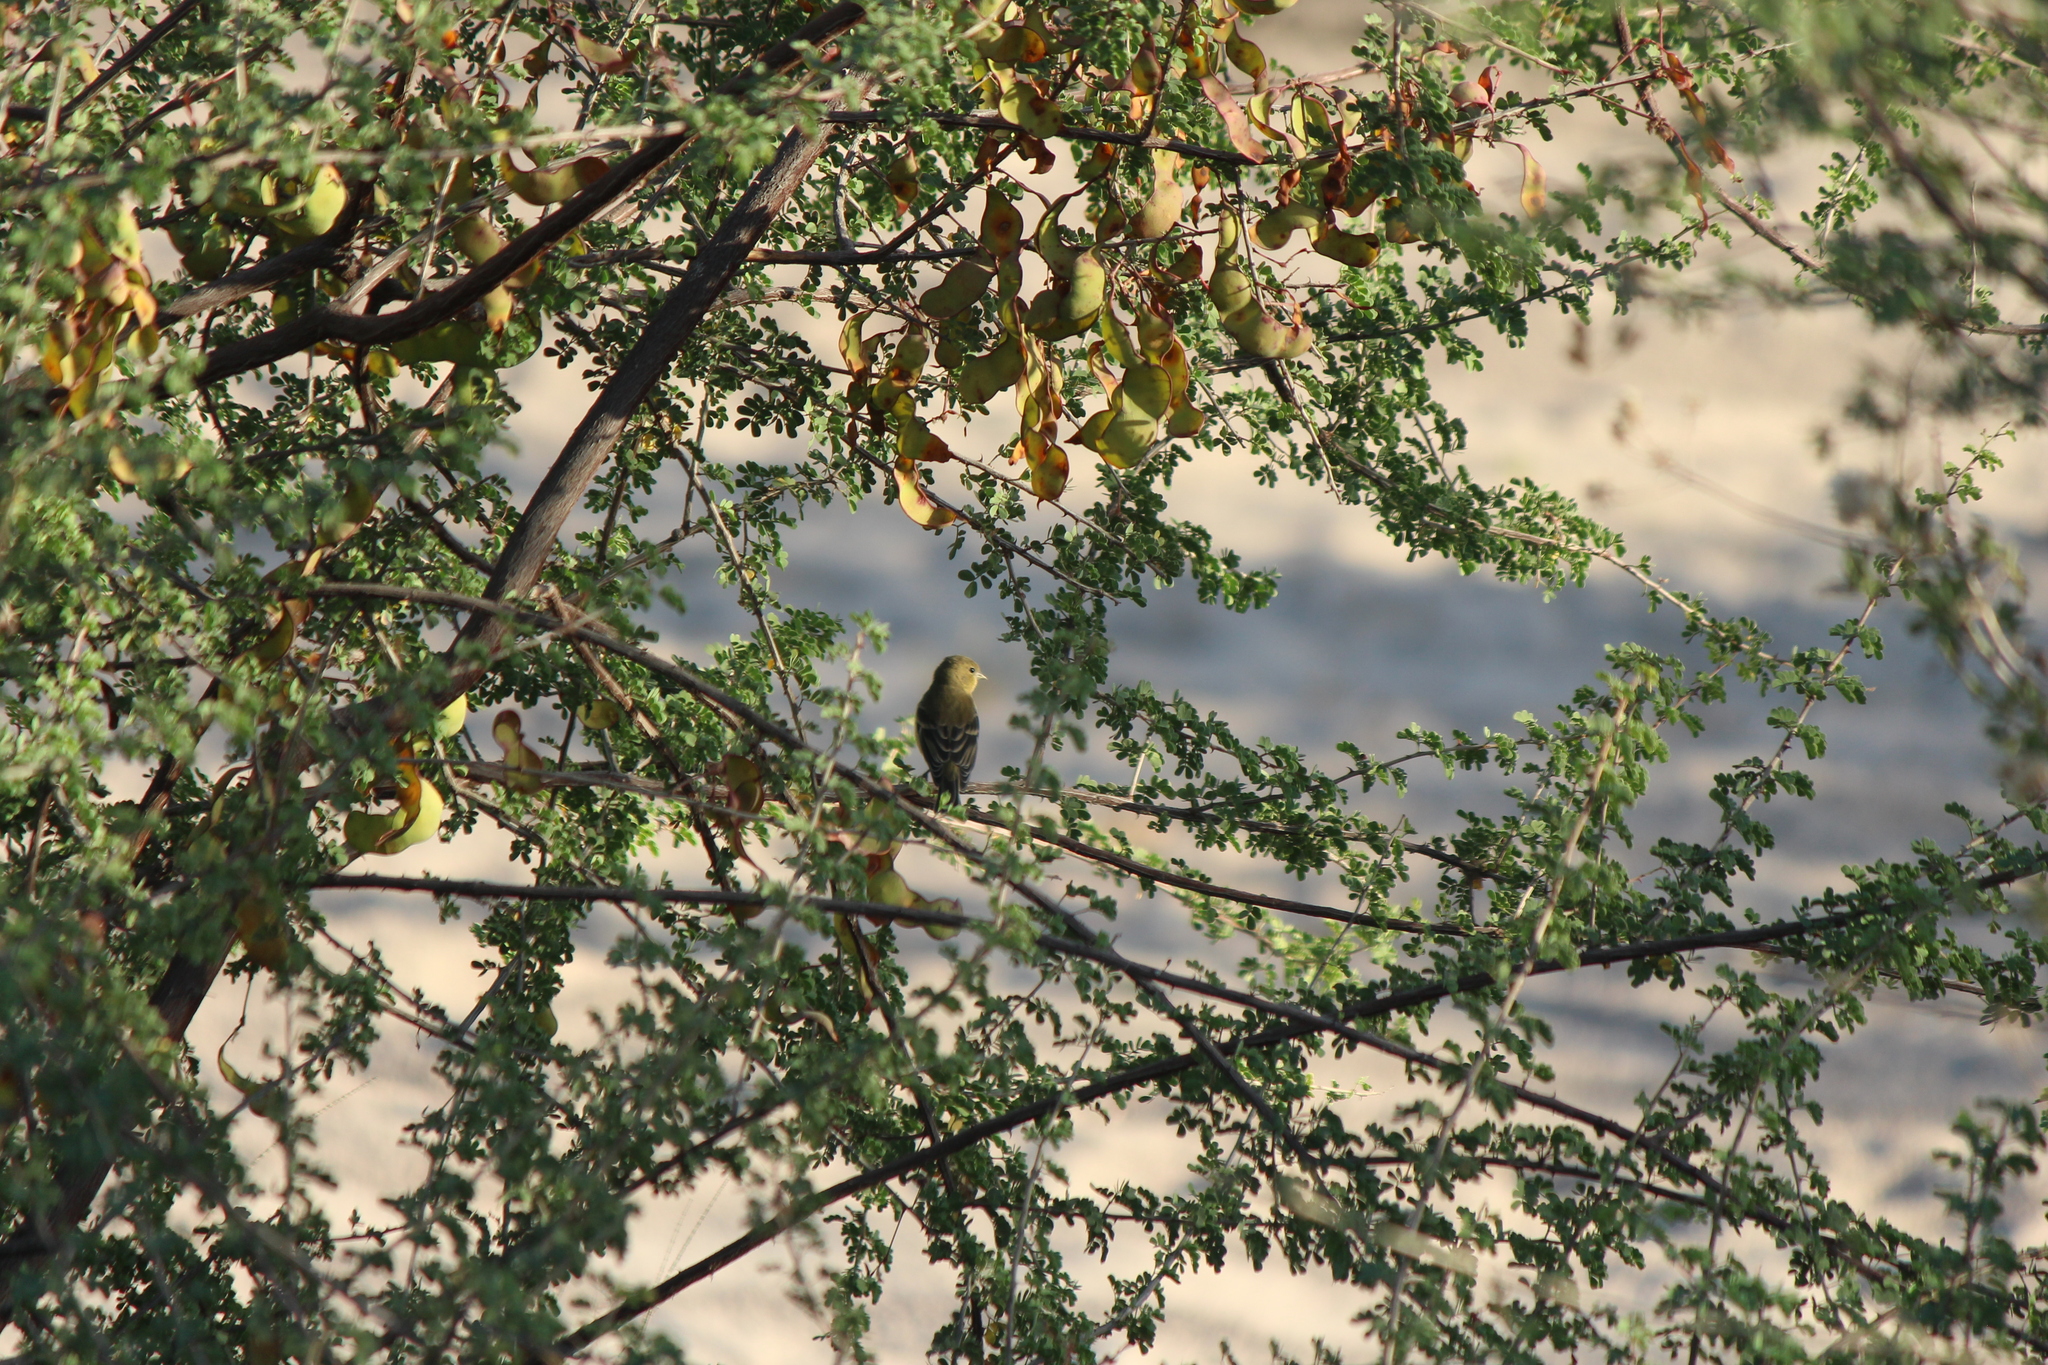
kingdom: Animalia
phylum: Chordata
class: Aves
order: Passeriformes
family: Fringillidae
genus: Spinus
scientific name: Spinus psaltria
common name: Lesser goldfinch
